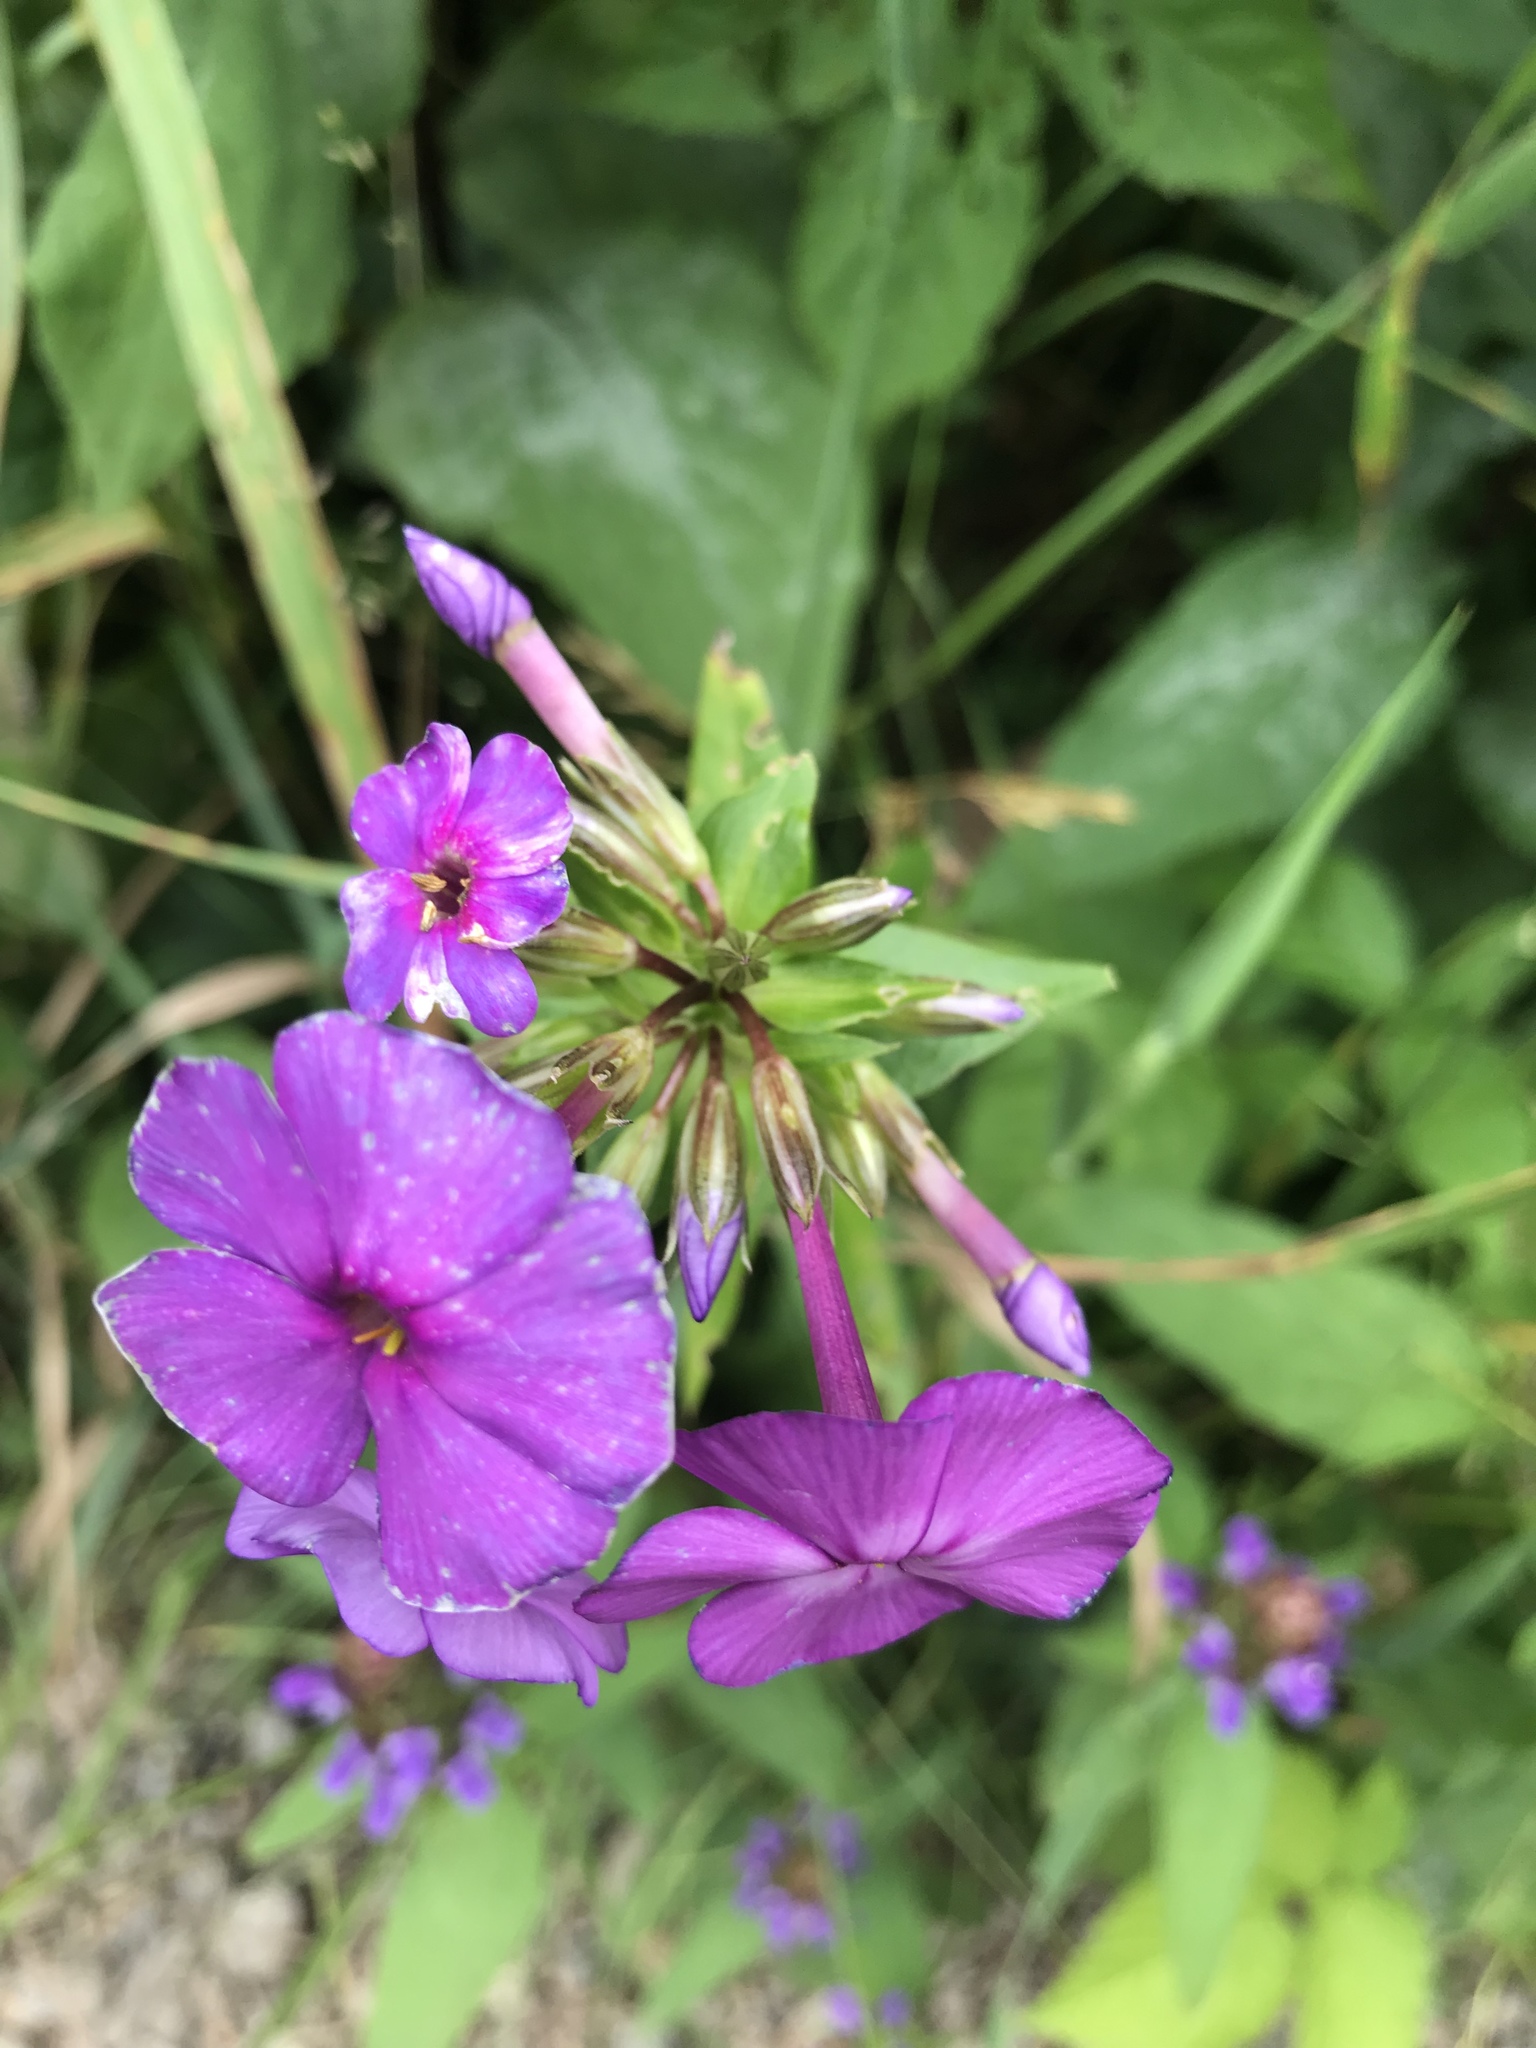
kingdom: Plantae
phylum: Tracheophyta
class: Magnoliopsida
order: Ericales
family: Polemoniaceae
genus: Phlox
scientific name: Phlox ovata
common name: Mountain phlox
